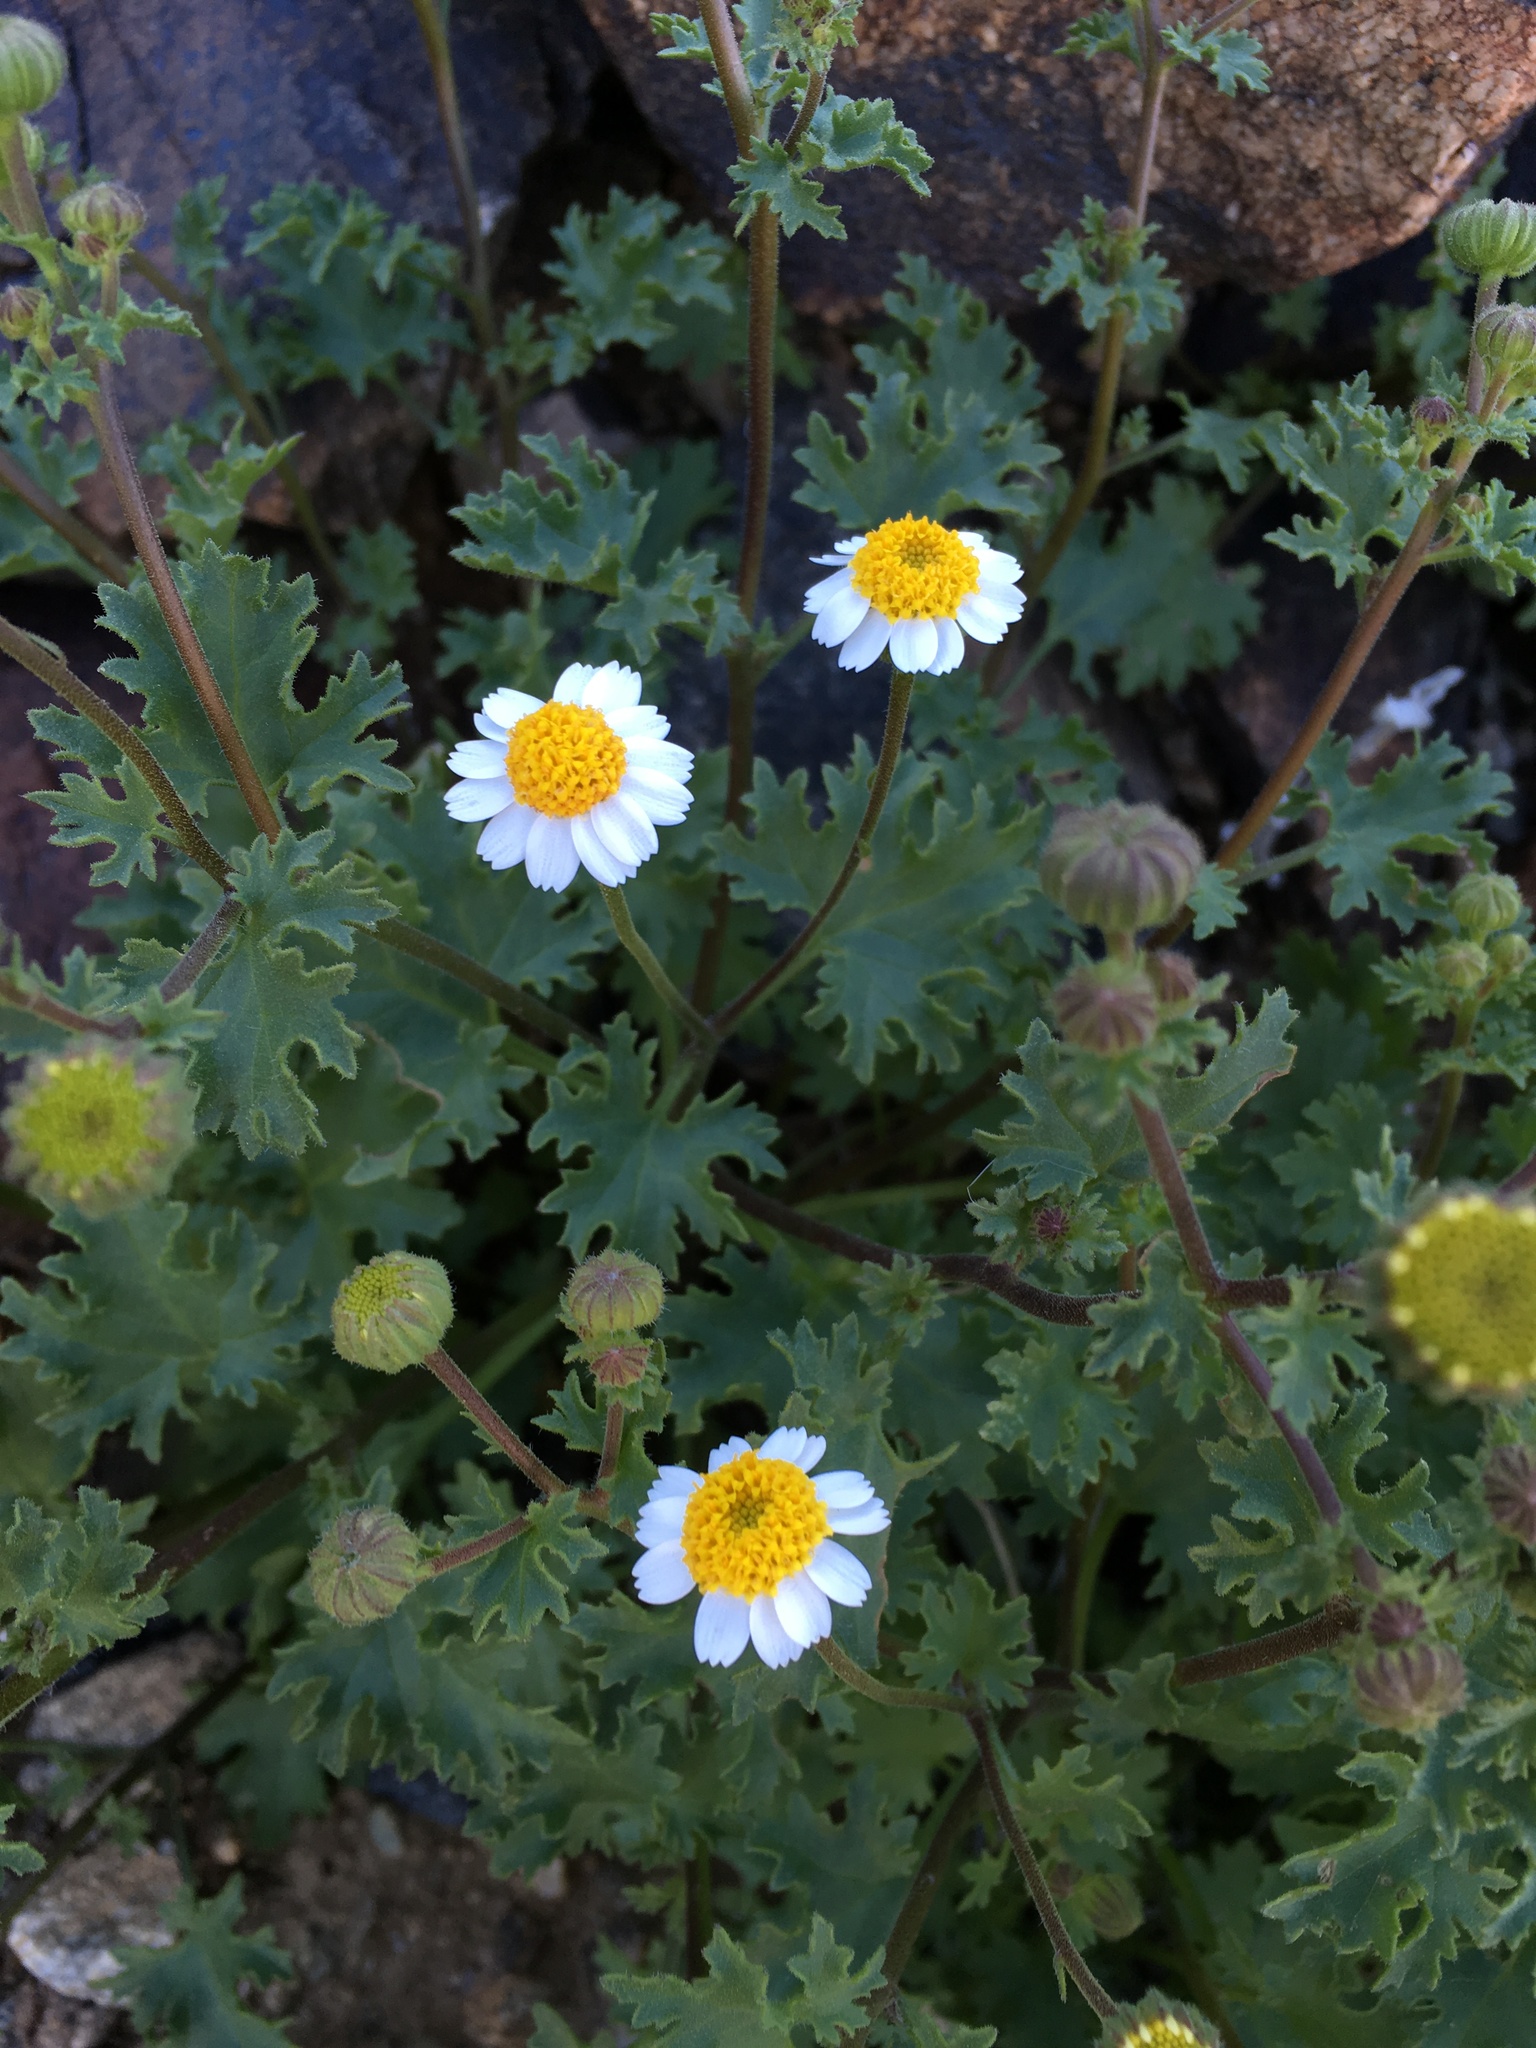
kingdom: Plantae
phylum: Tracheophyta
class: Magnoliopsida
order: Asterales
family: Asteraceae
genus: Laphamia
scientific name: Laphamia emoryi
